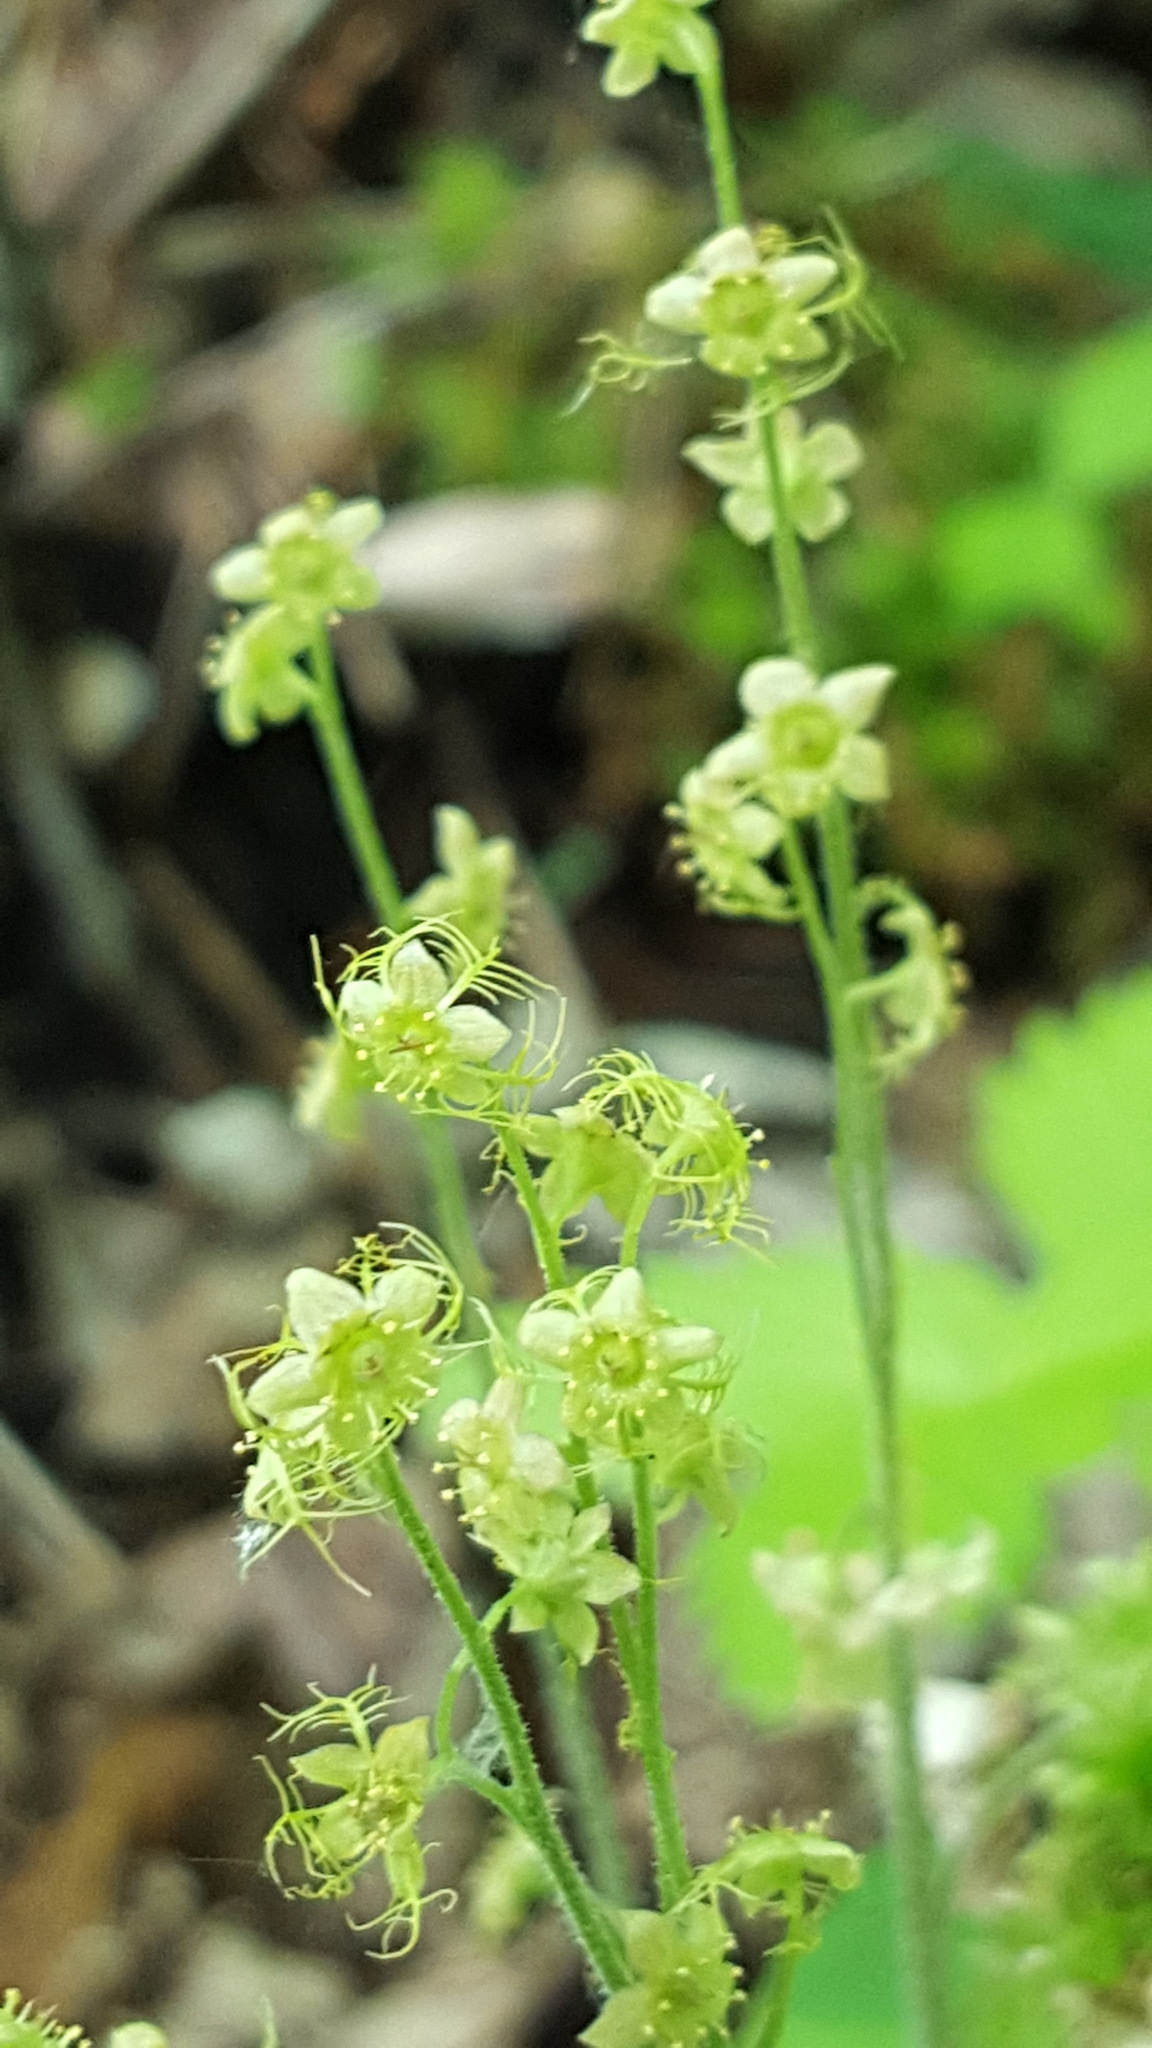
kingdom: Plantae
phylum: Tracheophyta
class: Magnoliopsida
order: Saxifragales
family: Saxifragaceae
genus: Mitella
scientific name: Mitella nuda
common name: Bare-stemmed bishop's-cap
